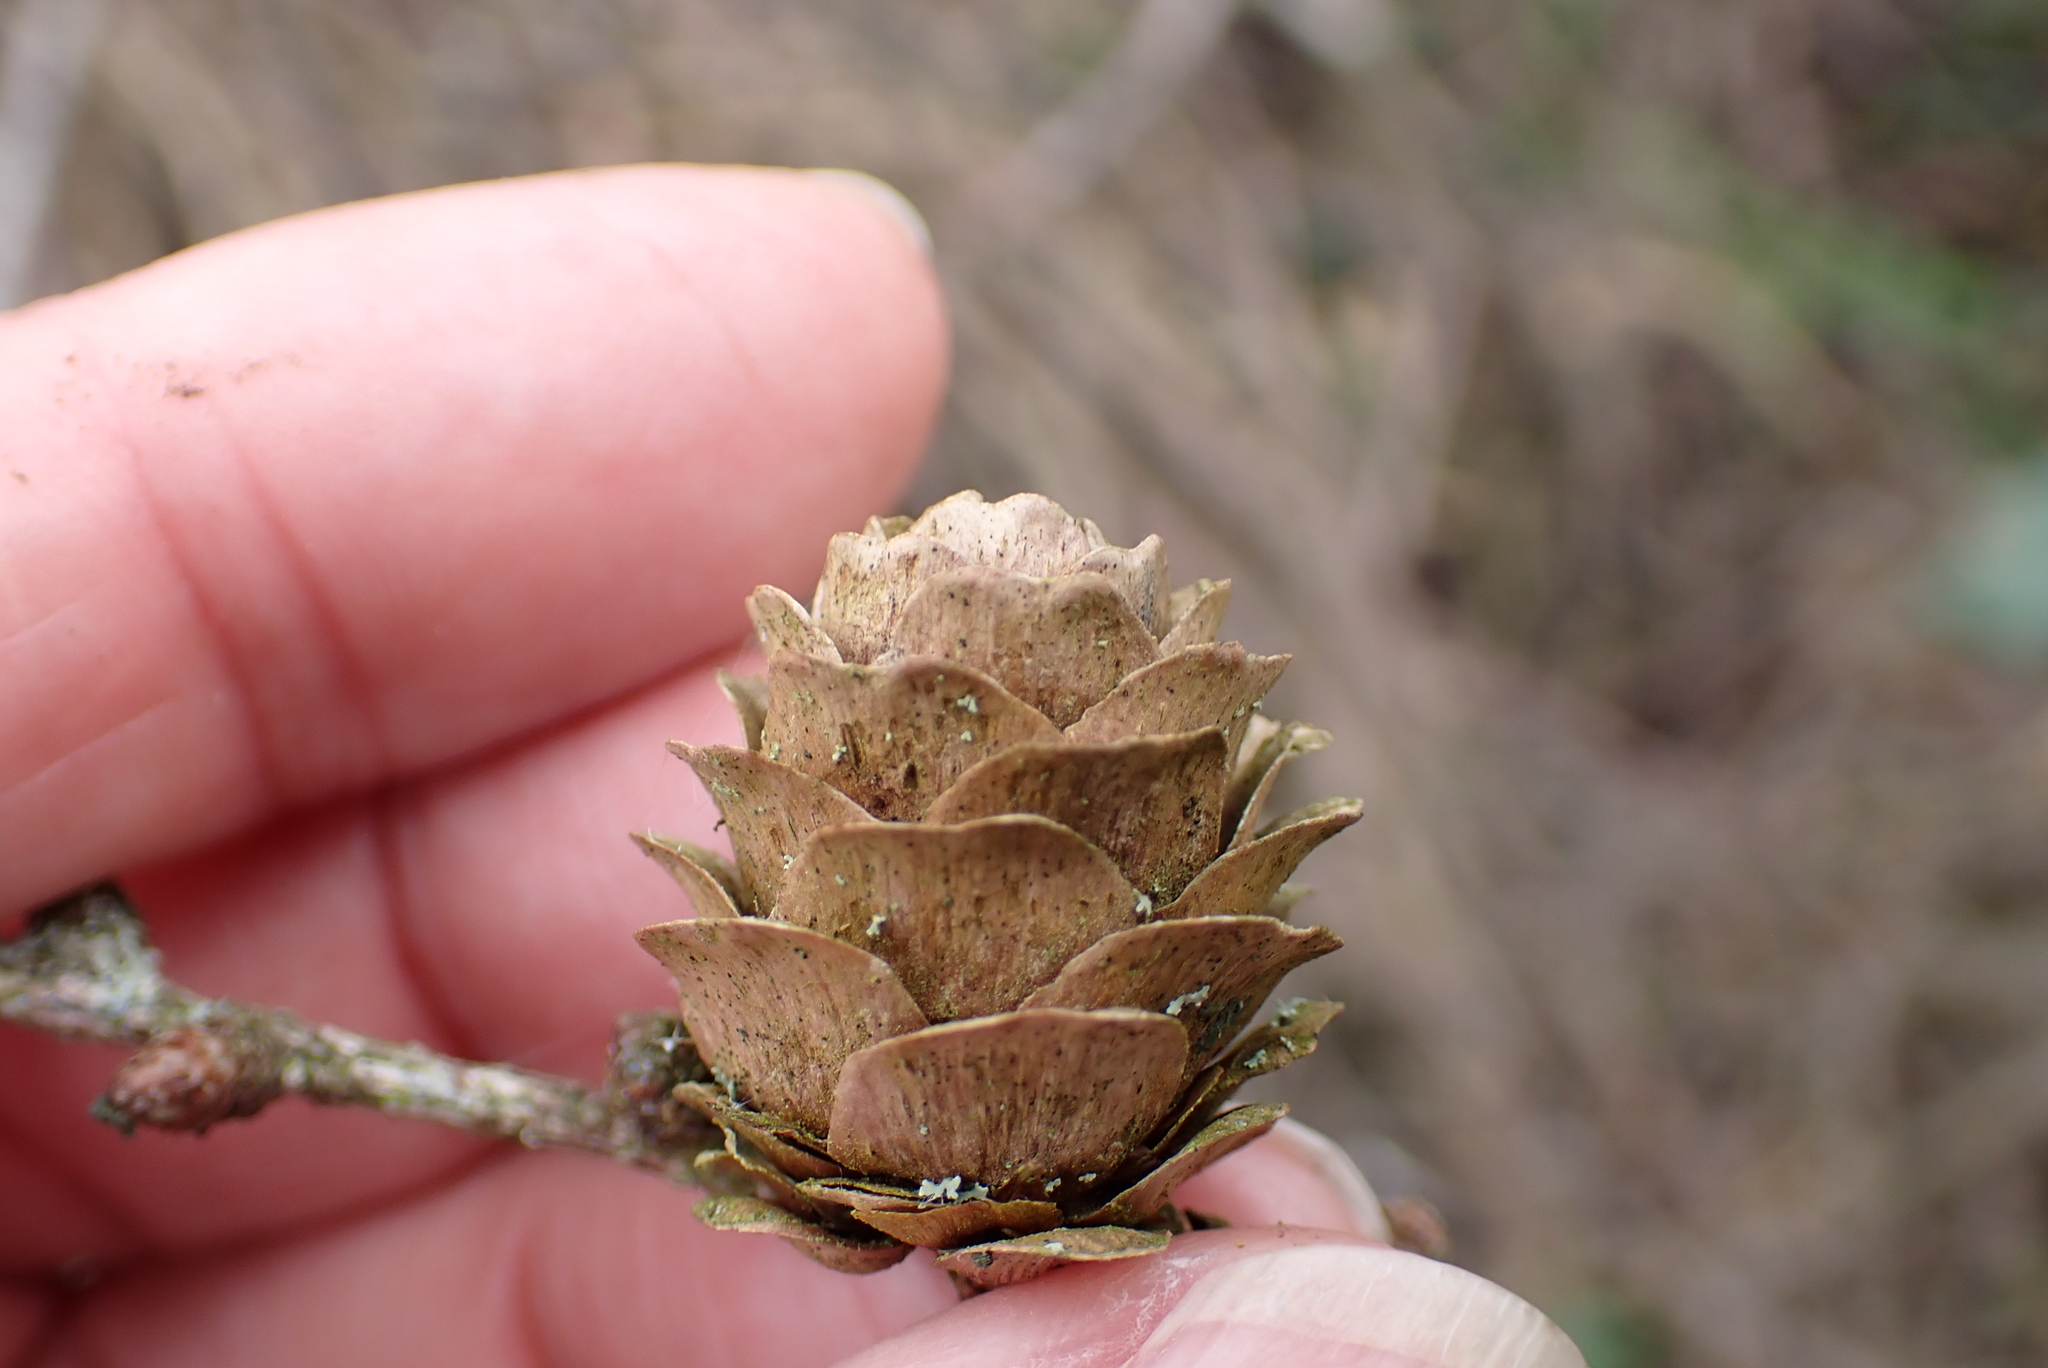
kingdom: Plantae
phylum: Tracheophyta
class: Pinopsida
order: Pinales
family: Pinaceae
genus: Larix
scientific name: Larix kaempferi
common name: Japanese larch
